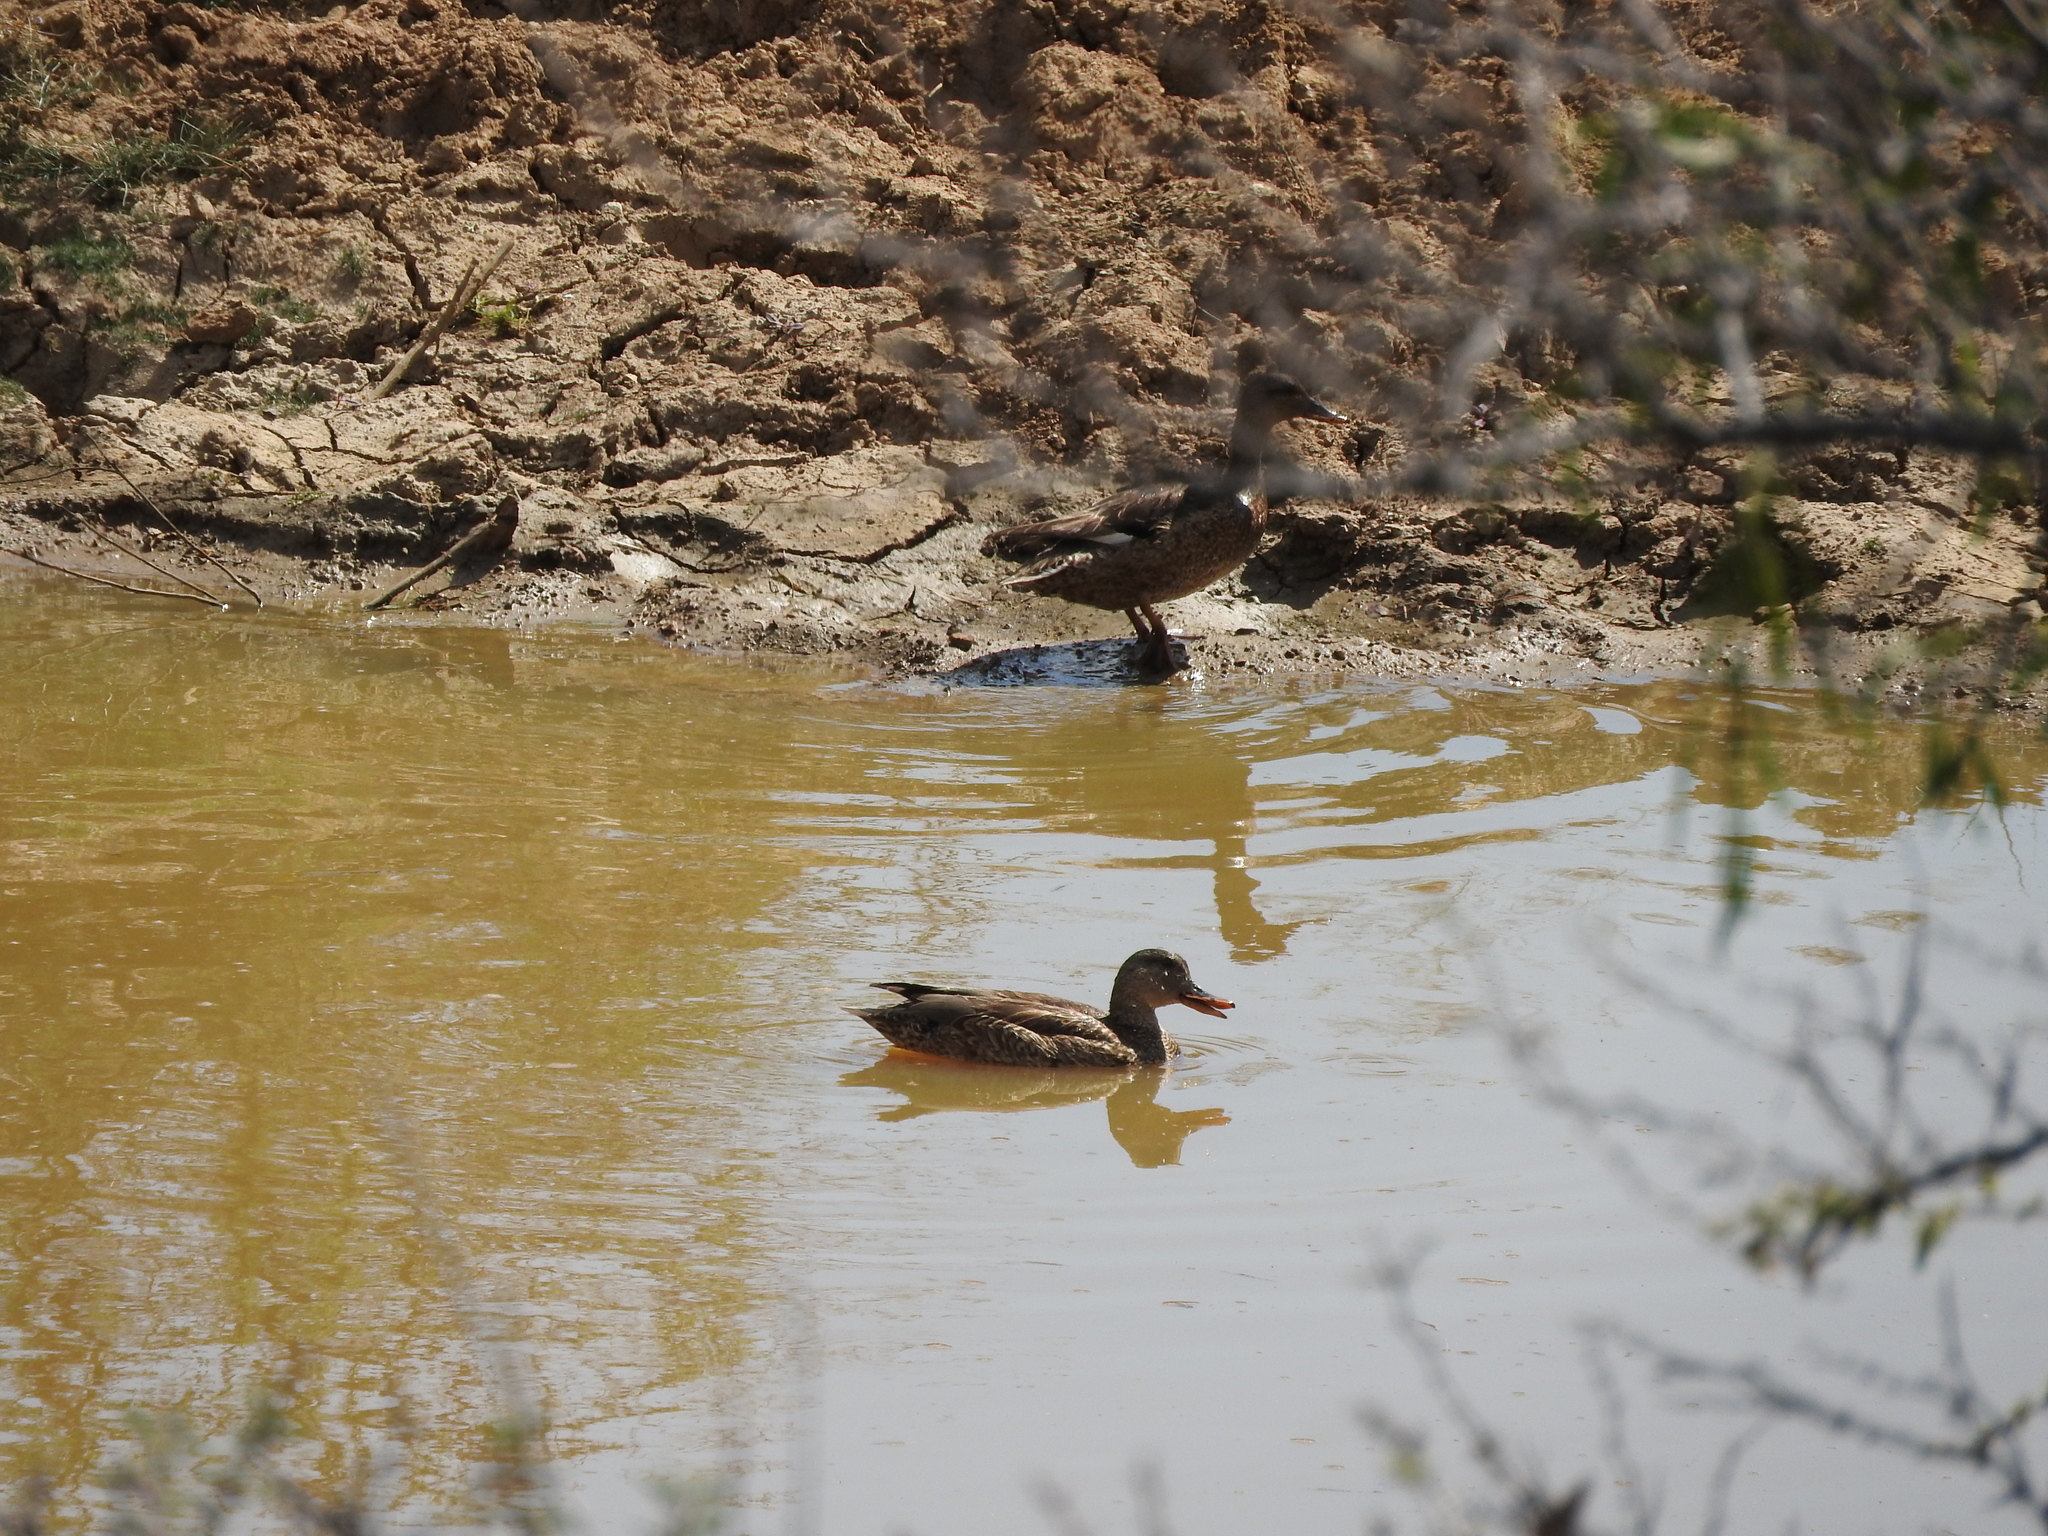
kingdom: Animalia
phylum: Chordata
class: Aves
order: Anseriformes
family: Anatidae
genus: Mareca
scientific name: Mareca strepera
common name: Gadwall
